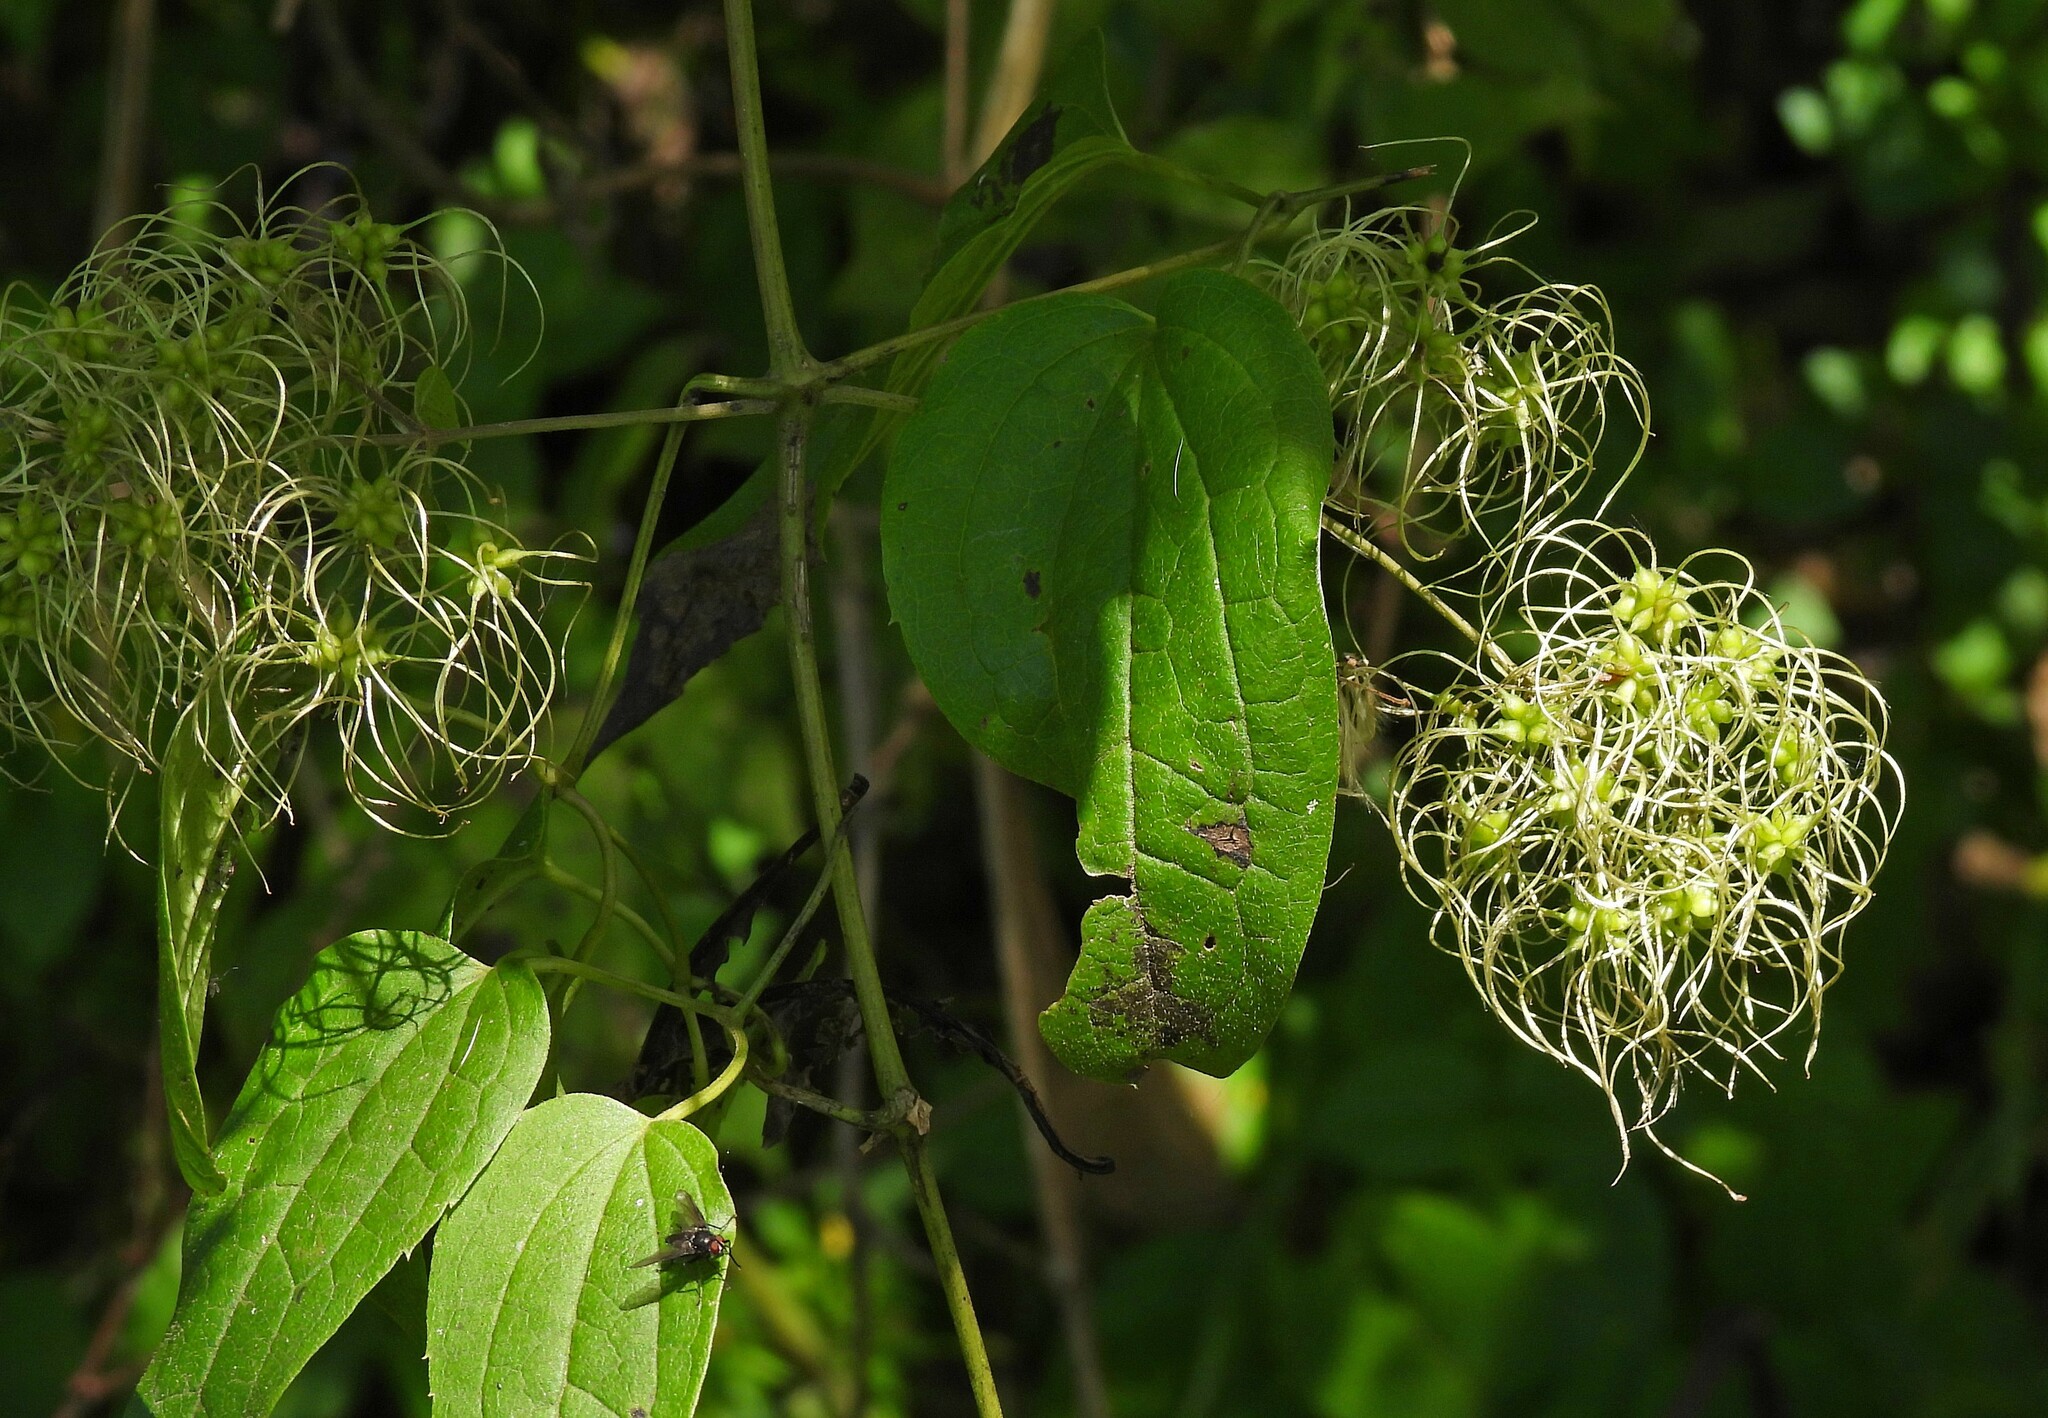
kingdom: Plantae
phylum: Tracheophyta
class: Magnoliopsida
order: Ranunculales
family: Ranunculaceae
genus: Clematis
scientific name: Clematis haenkeana
